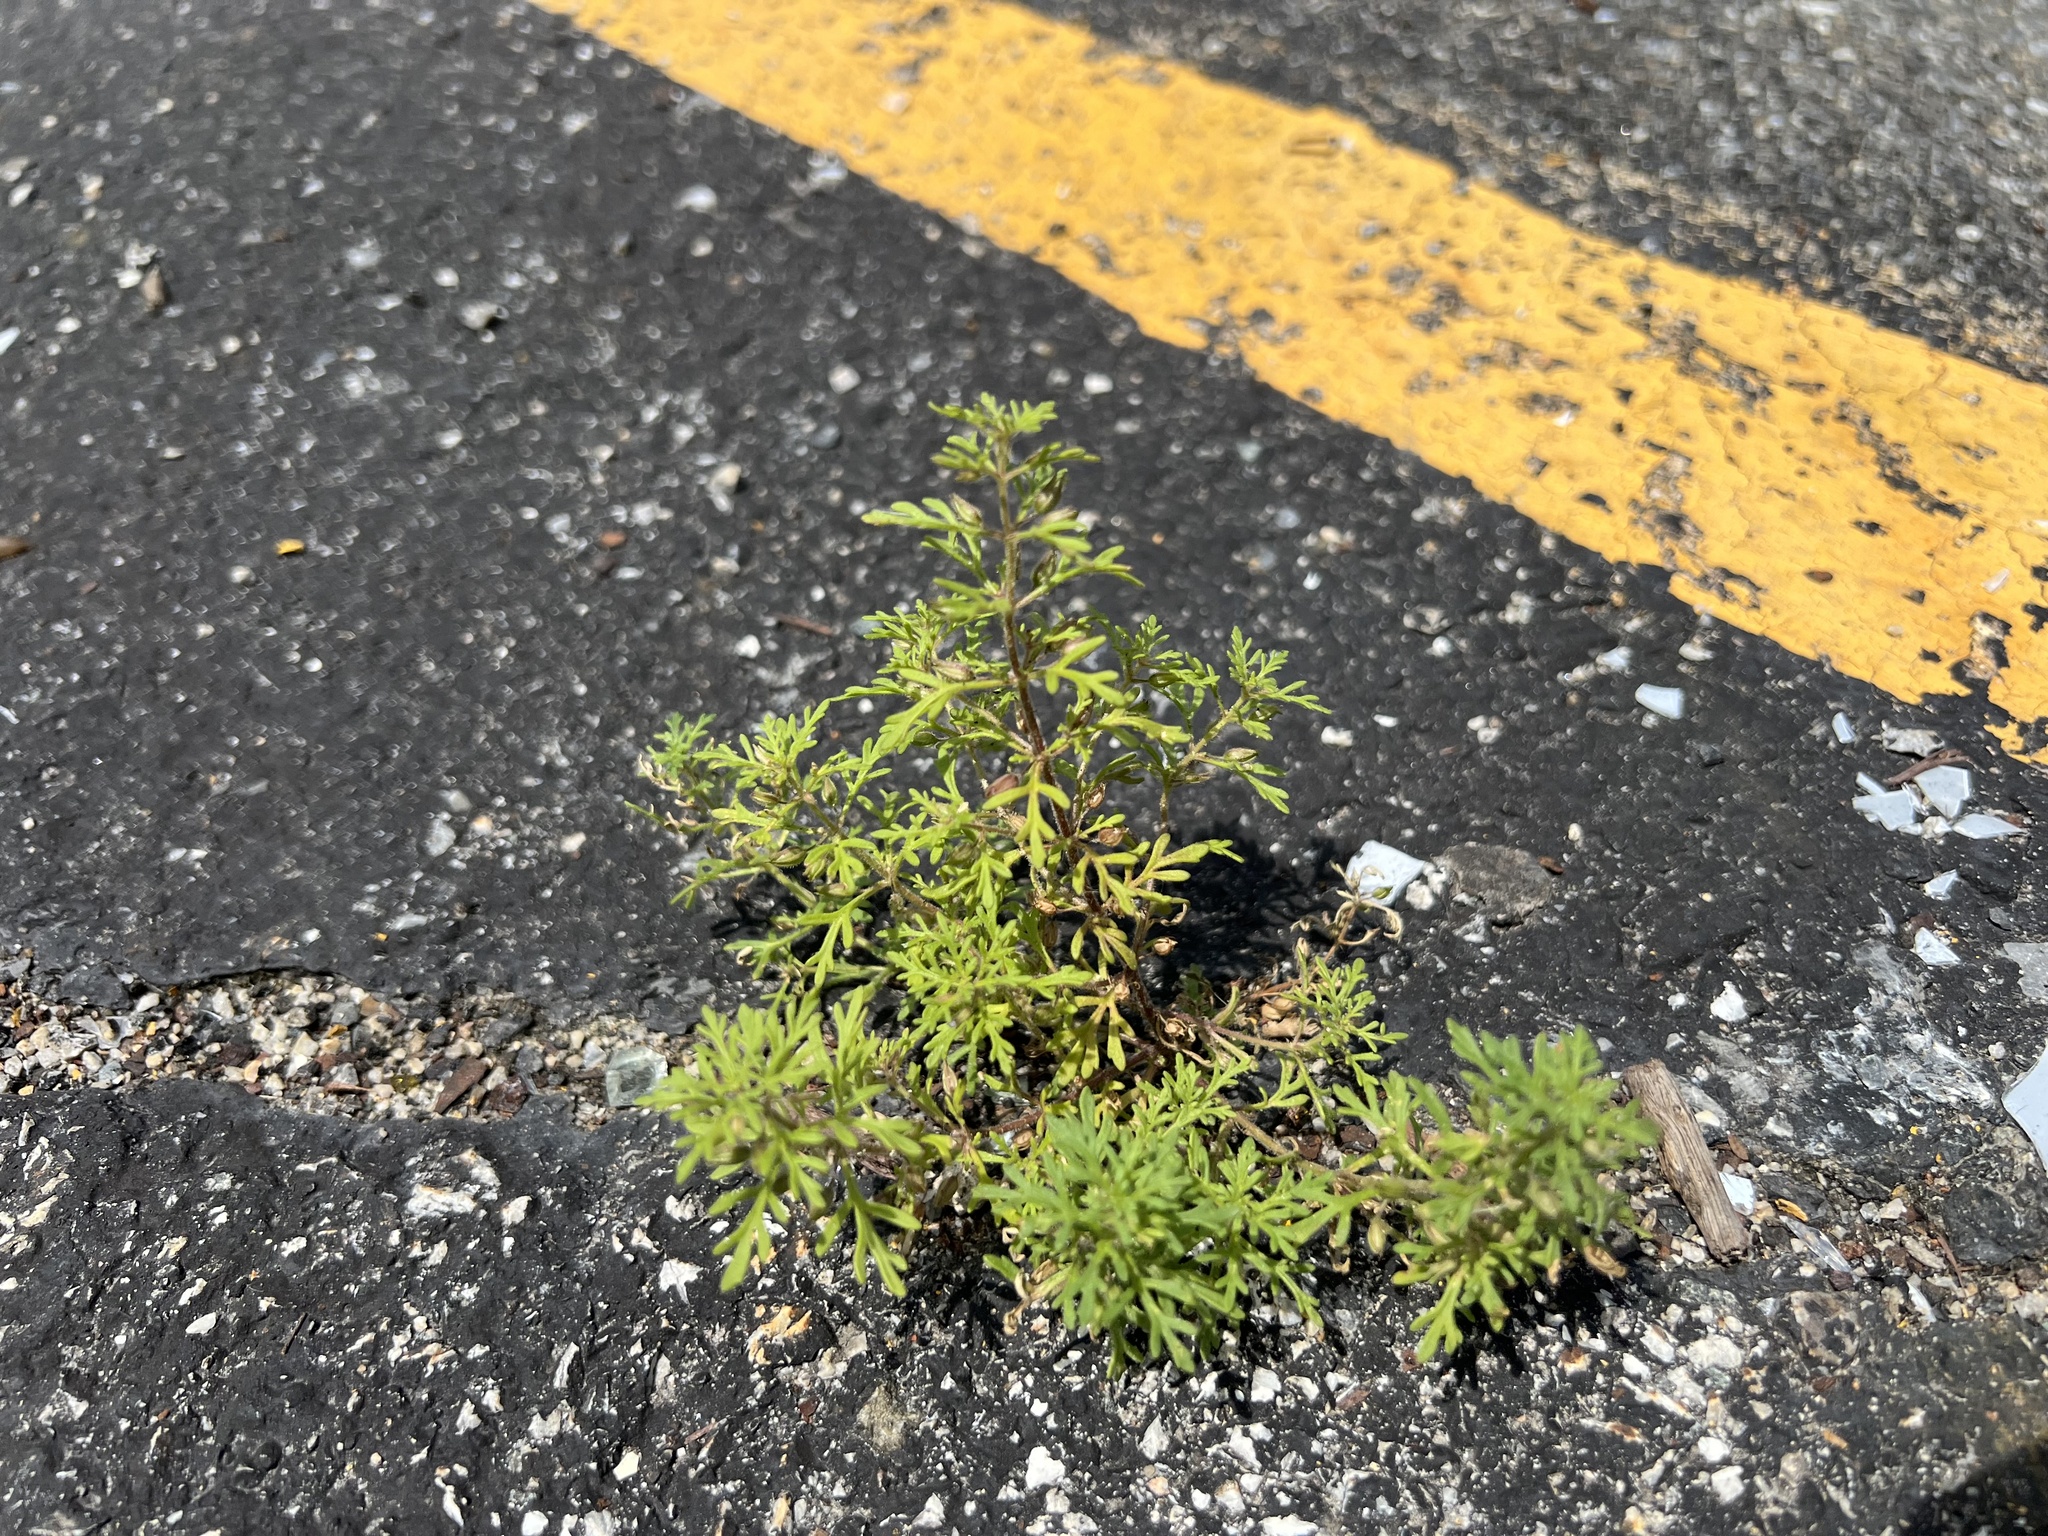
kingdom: Plantae
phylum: Tracheophyta
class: Magnoliopsida
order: Lamiales
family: Plantaginaceae
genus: Leucospora
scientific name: Leucospora multifida
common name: Narrow-leaf paleseed
